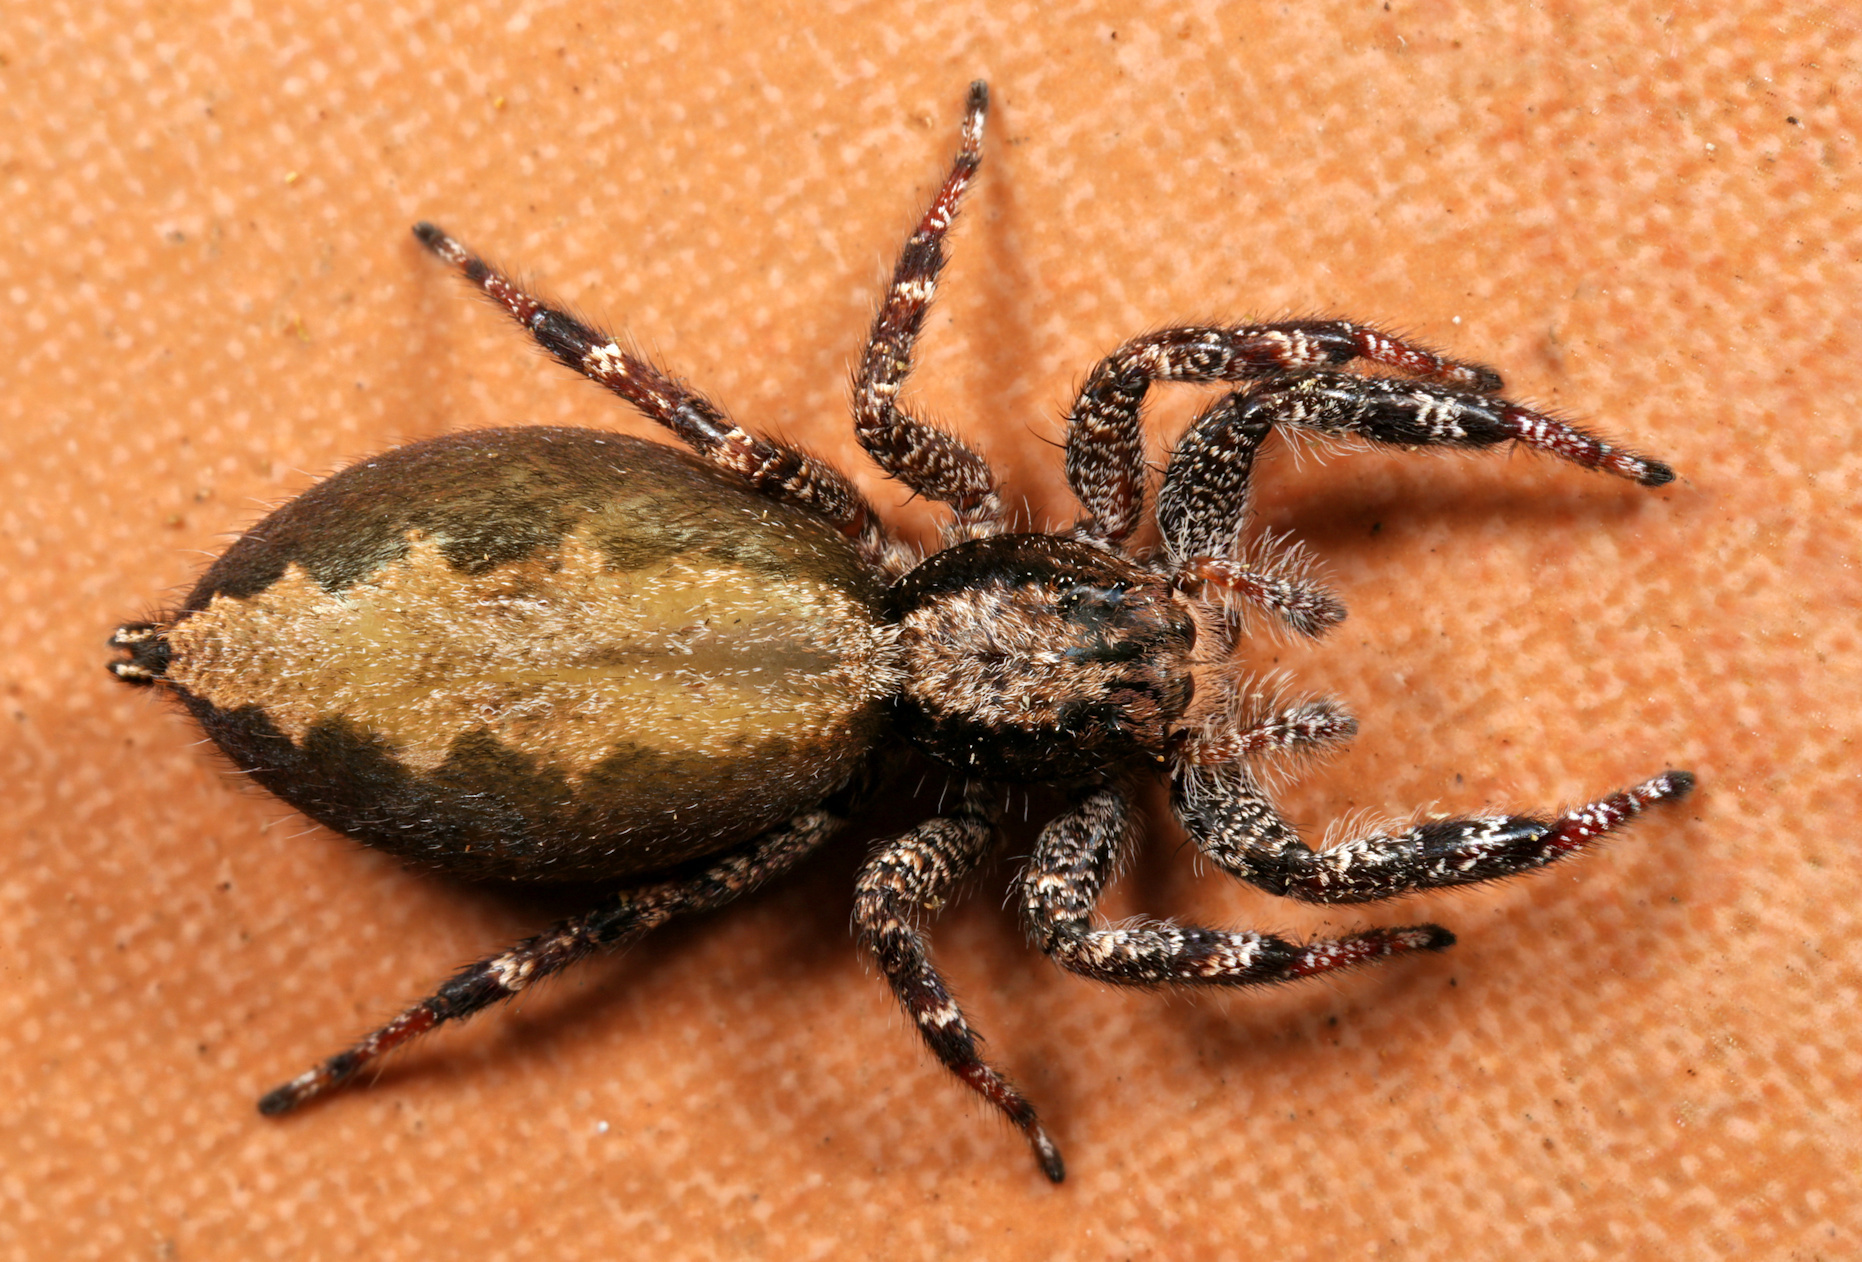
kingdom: Animalia
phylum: Arthropoda
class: Arachnida
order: Araneae
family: Salticidae
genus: Holcolaetis
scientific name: Holcolaetis zuluensis
